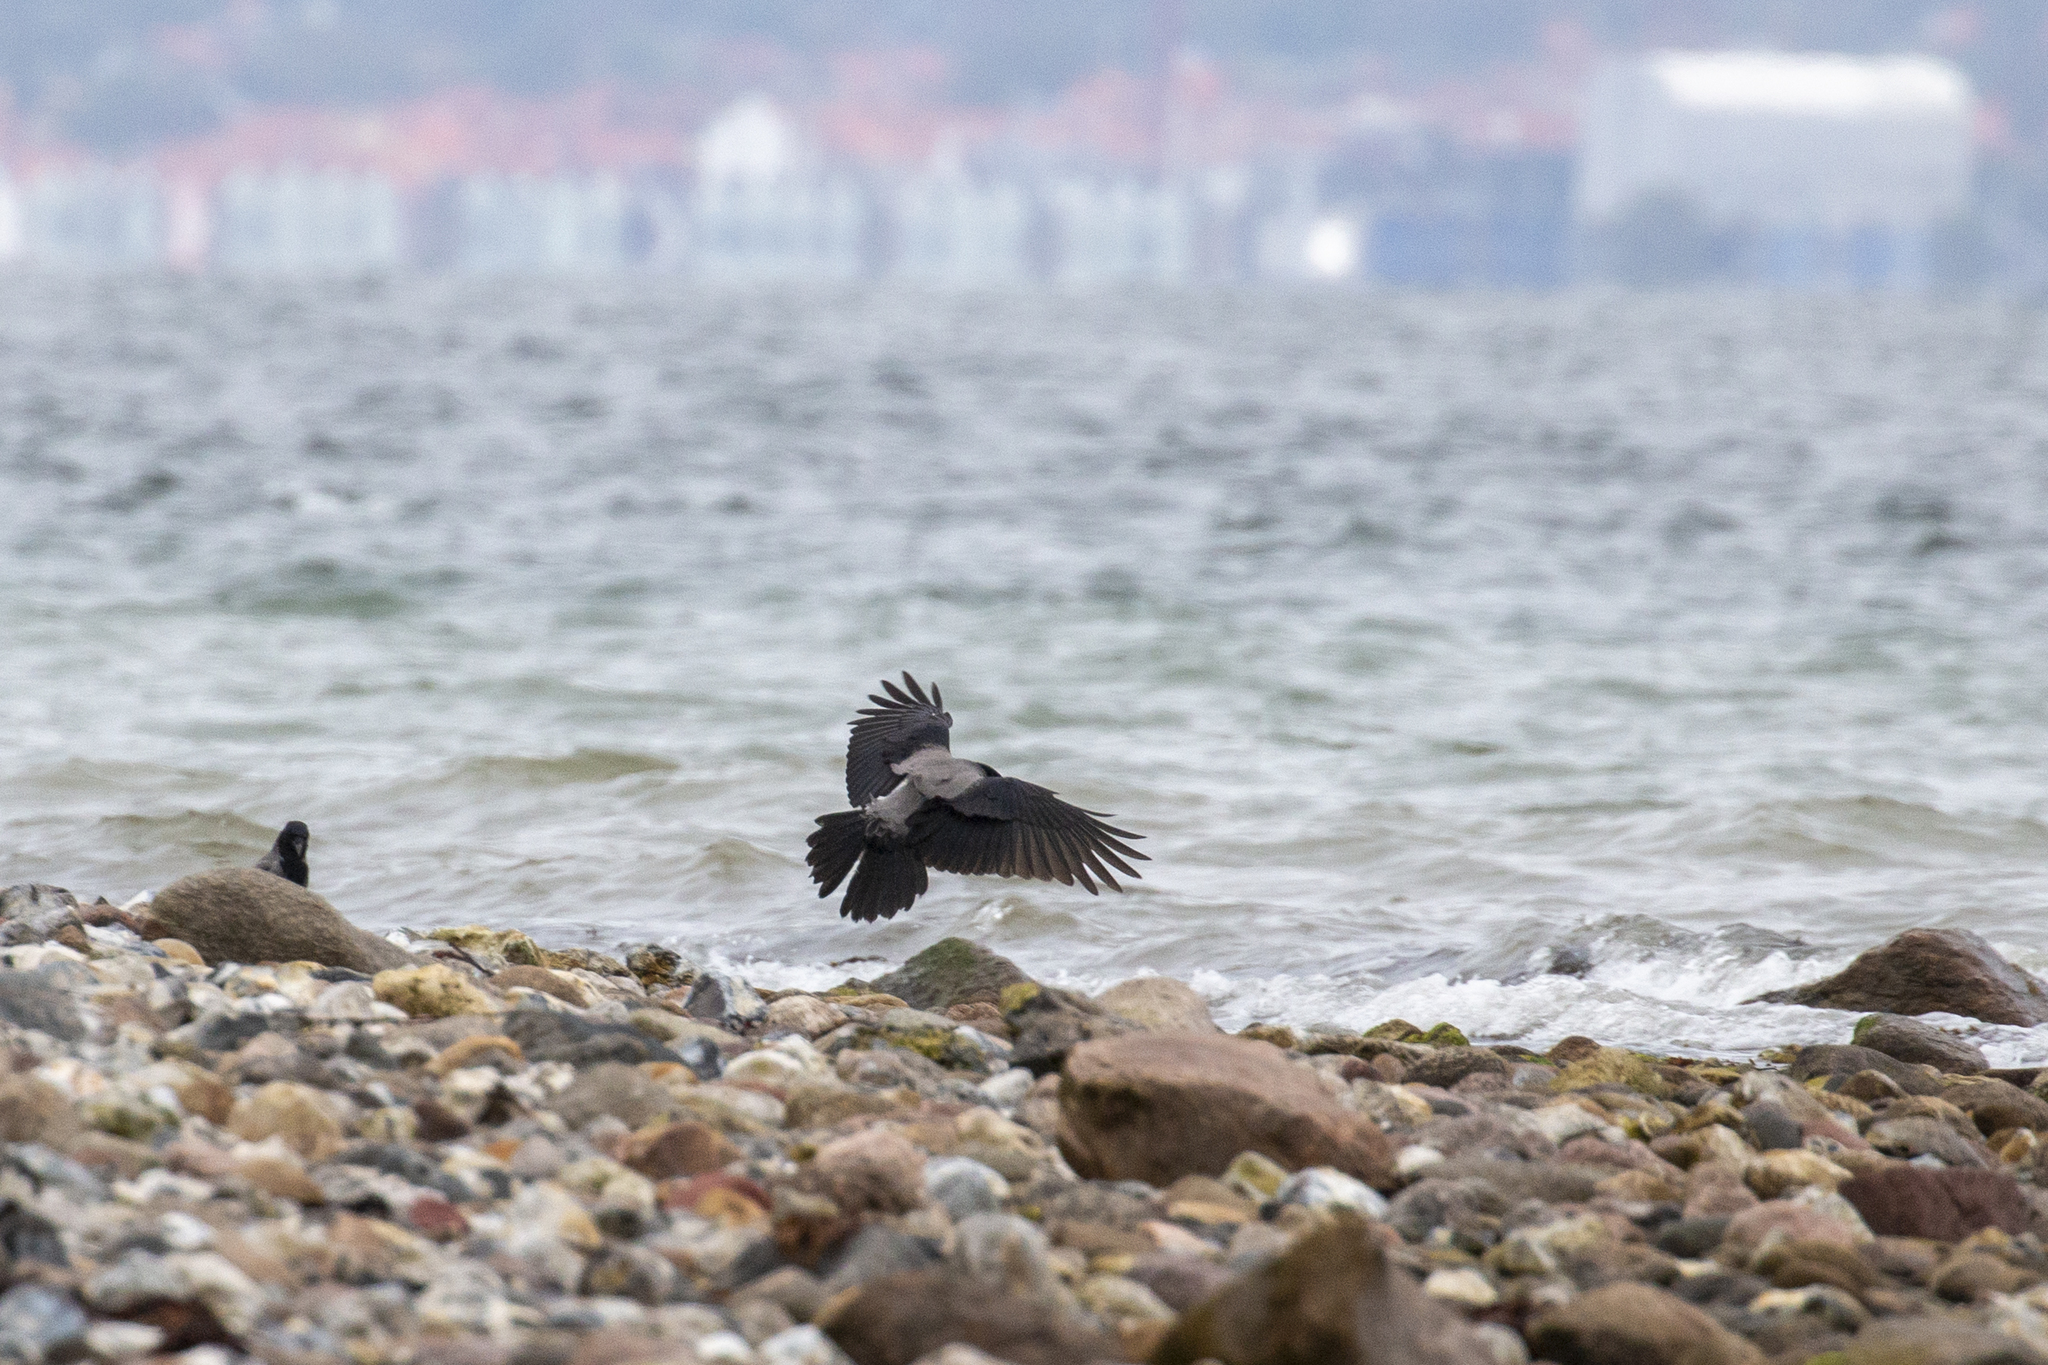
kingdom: Animalia
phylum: Chordata
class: Aves
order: Passeriformes
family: Corvidae
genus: Corvus
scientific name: Corvus cornix
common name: Hooded crow
